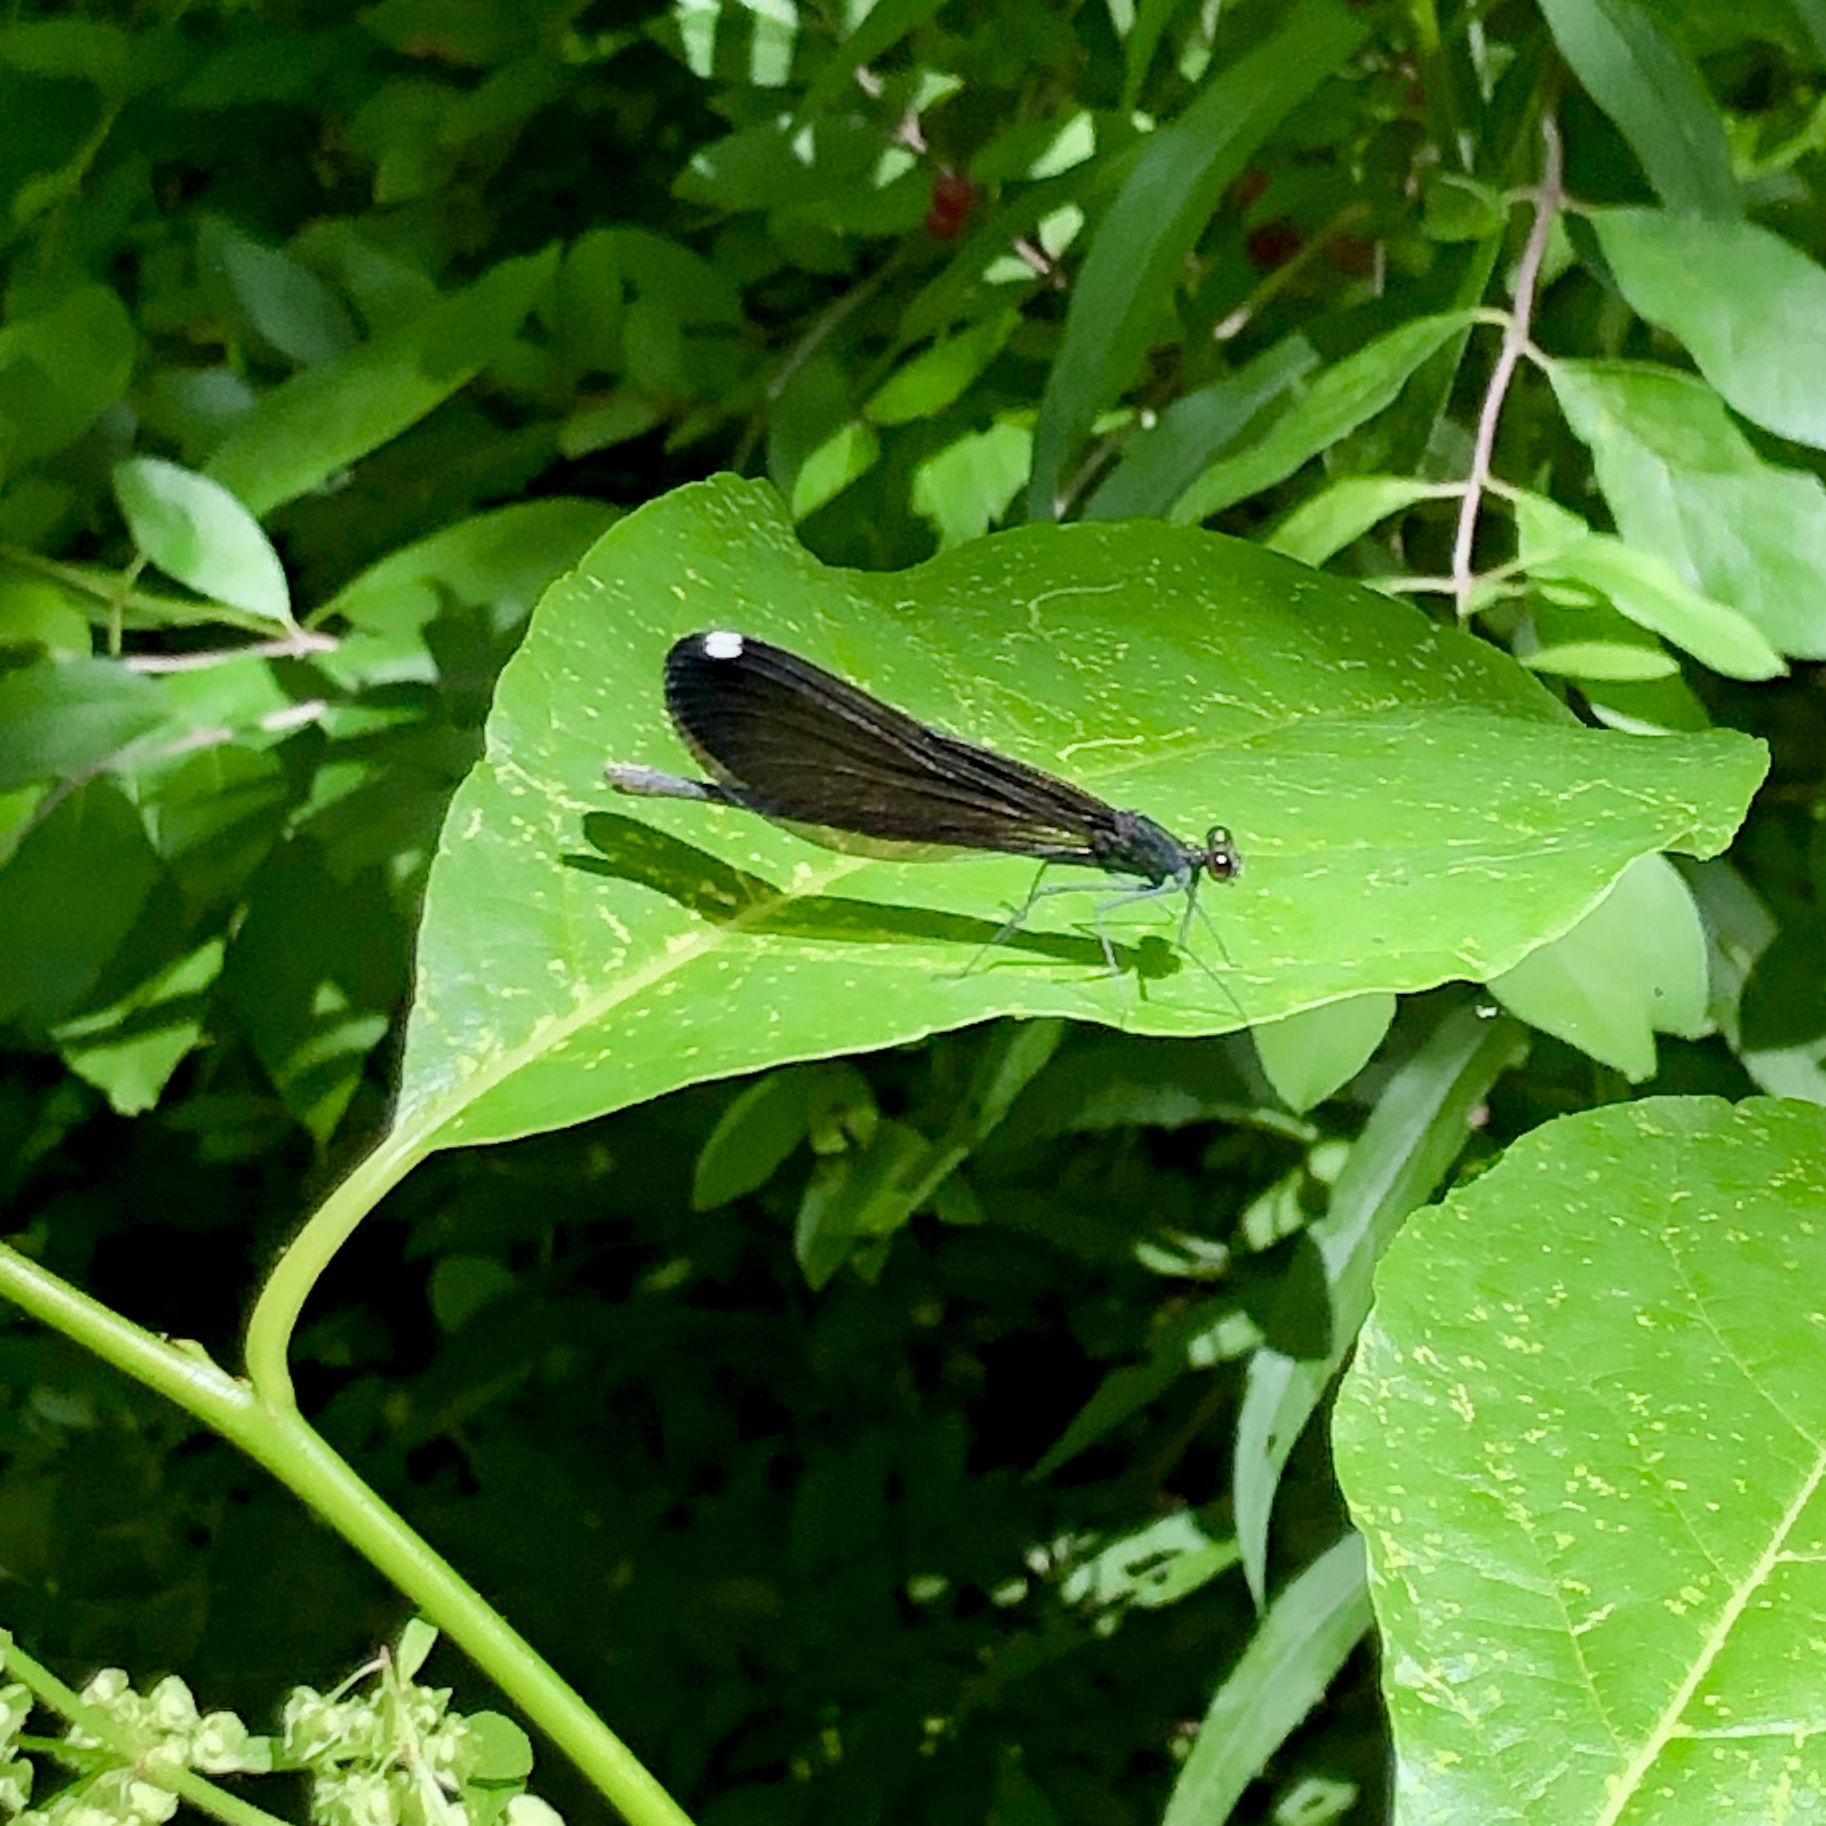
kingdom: Animalia
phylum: Arthropoda
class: Insecta
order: Odonata
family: Calopterygidae
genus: Calopteryx
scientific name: Calopteryx maculata
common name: Ebony jewelwing
